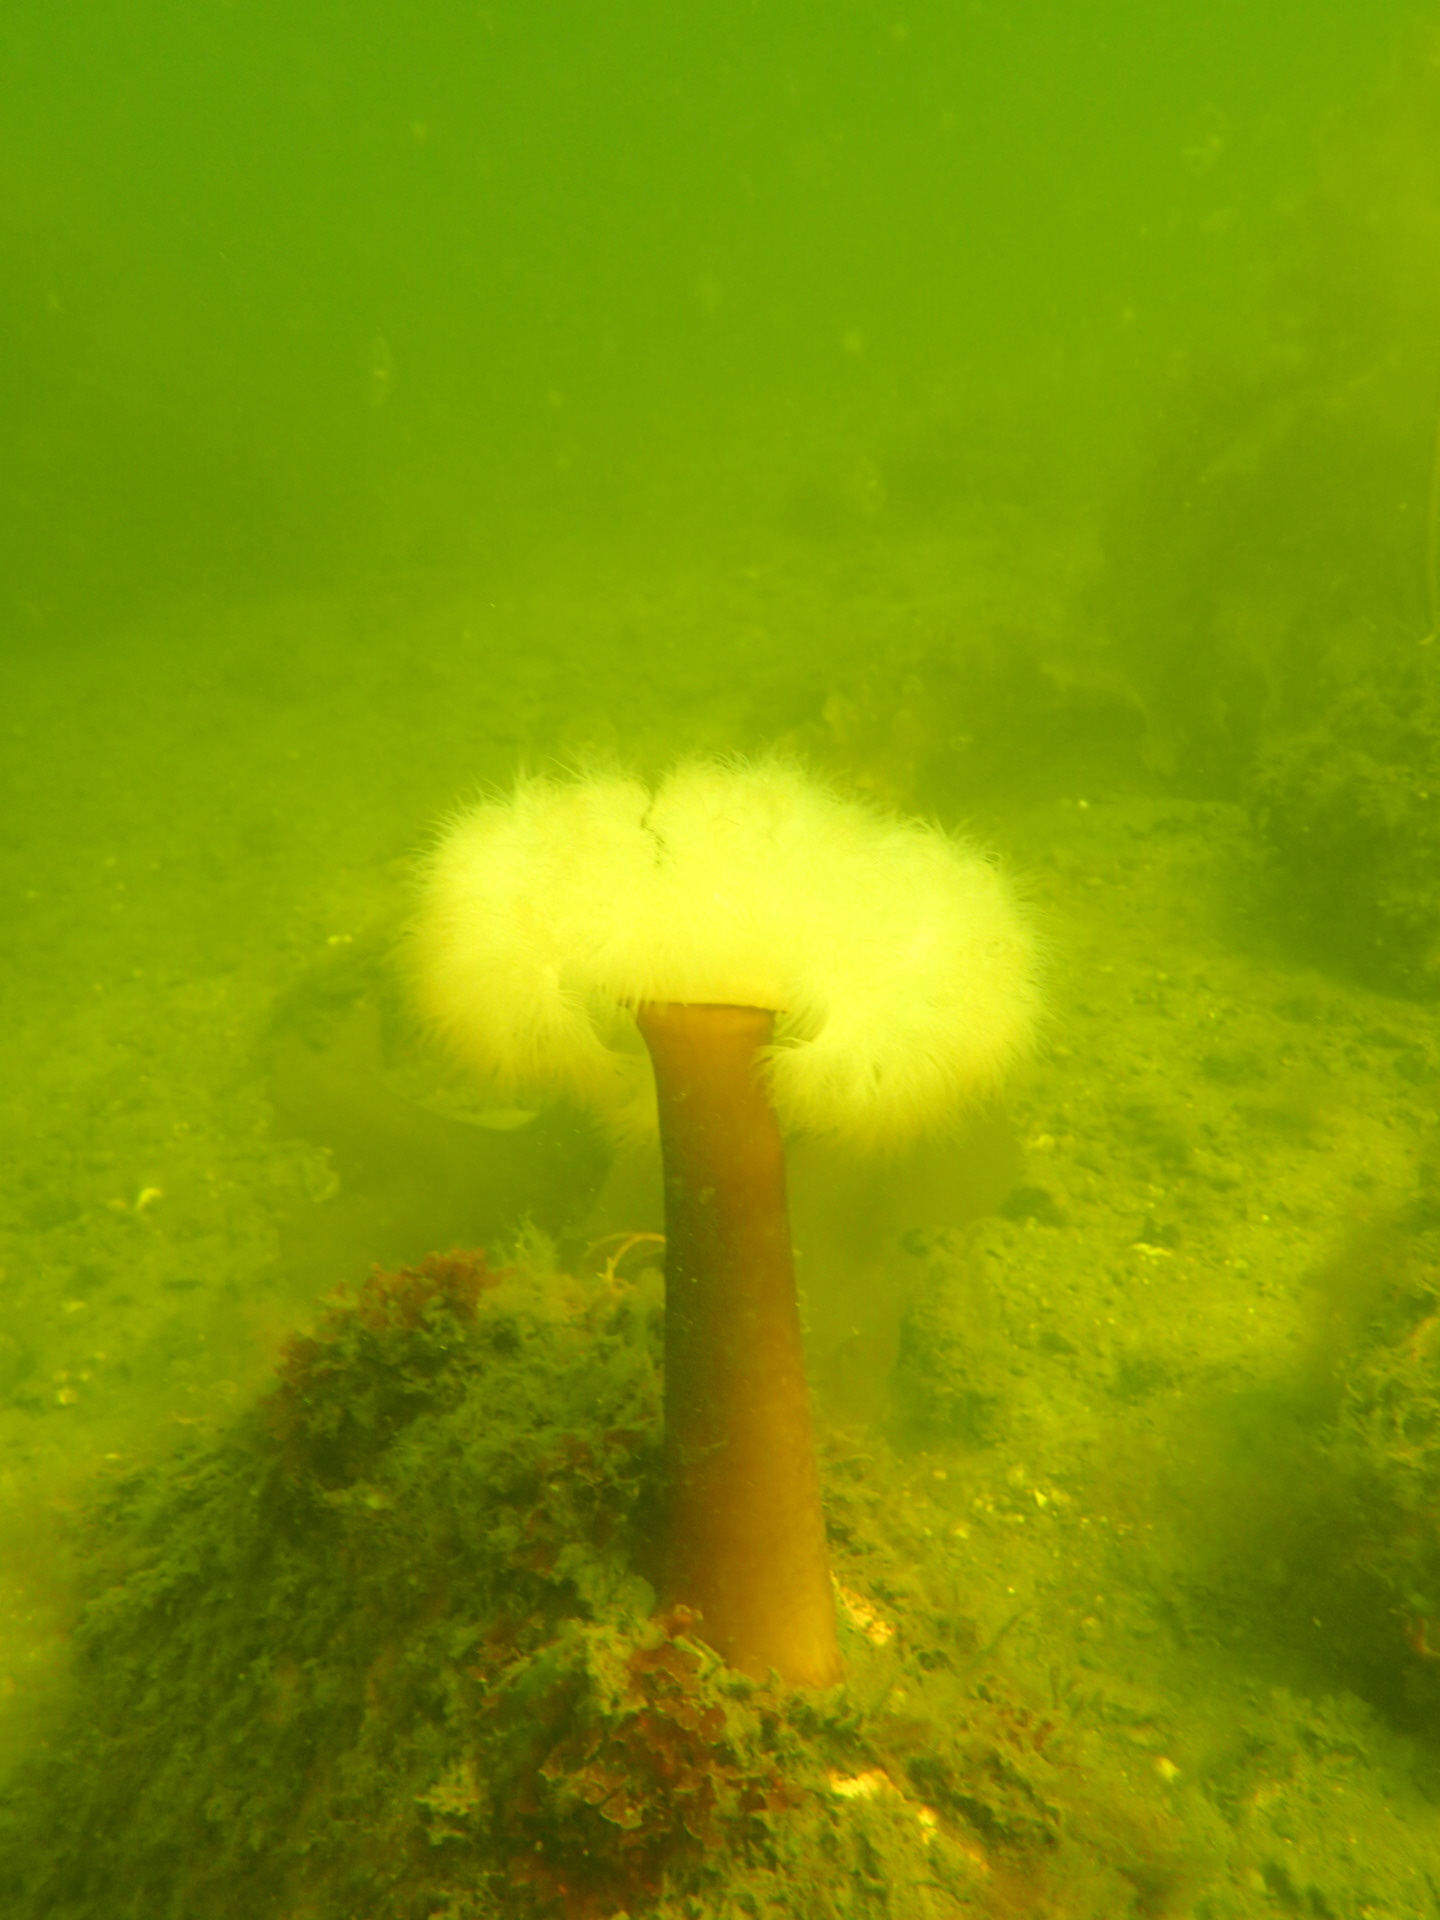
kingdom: Animalia
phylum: Cnidaria
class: Anthozoa
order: Actiniaria
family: Metridiidae
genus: Metridium
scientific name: Metridium senile
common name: Clonal plumose anemone
